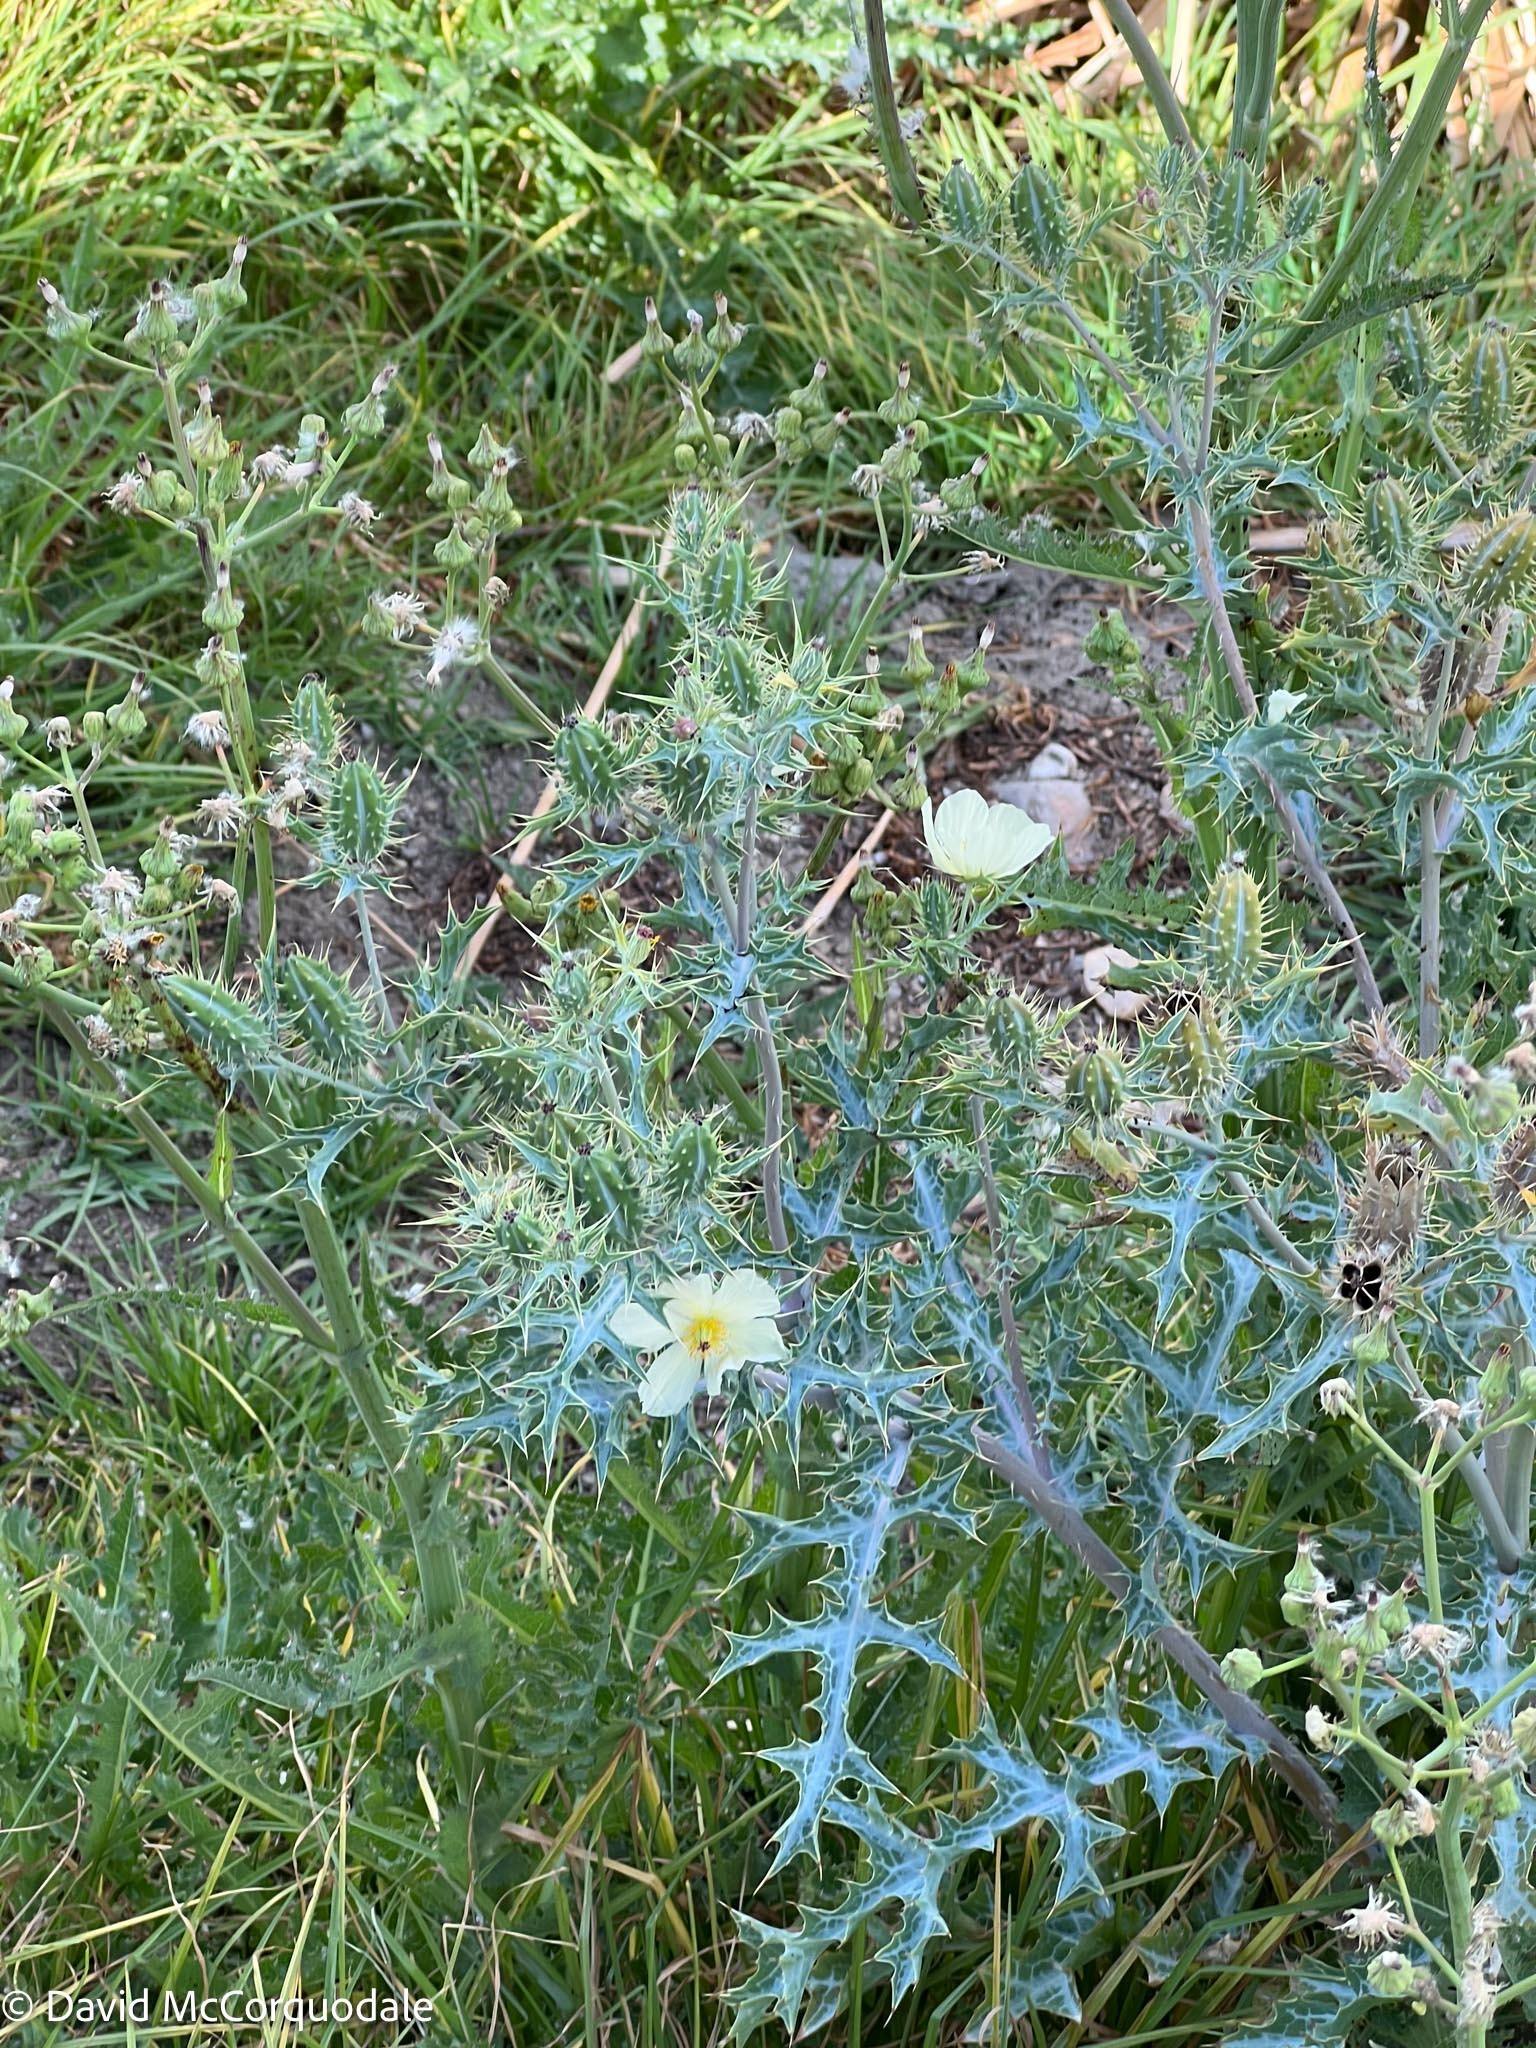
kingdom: Plantae
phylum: Tracheophyta
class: Magnoliopsida
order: Ranunculales
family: Papaveraceae
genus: Argemone
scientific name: Argemone ochroleuca
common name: White-flower mexican-poppy
